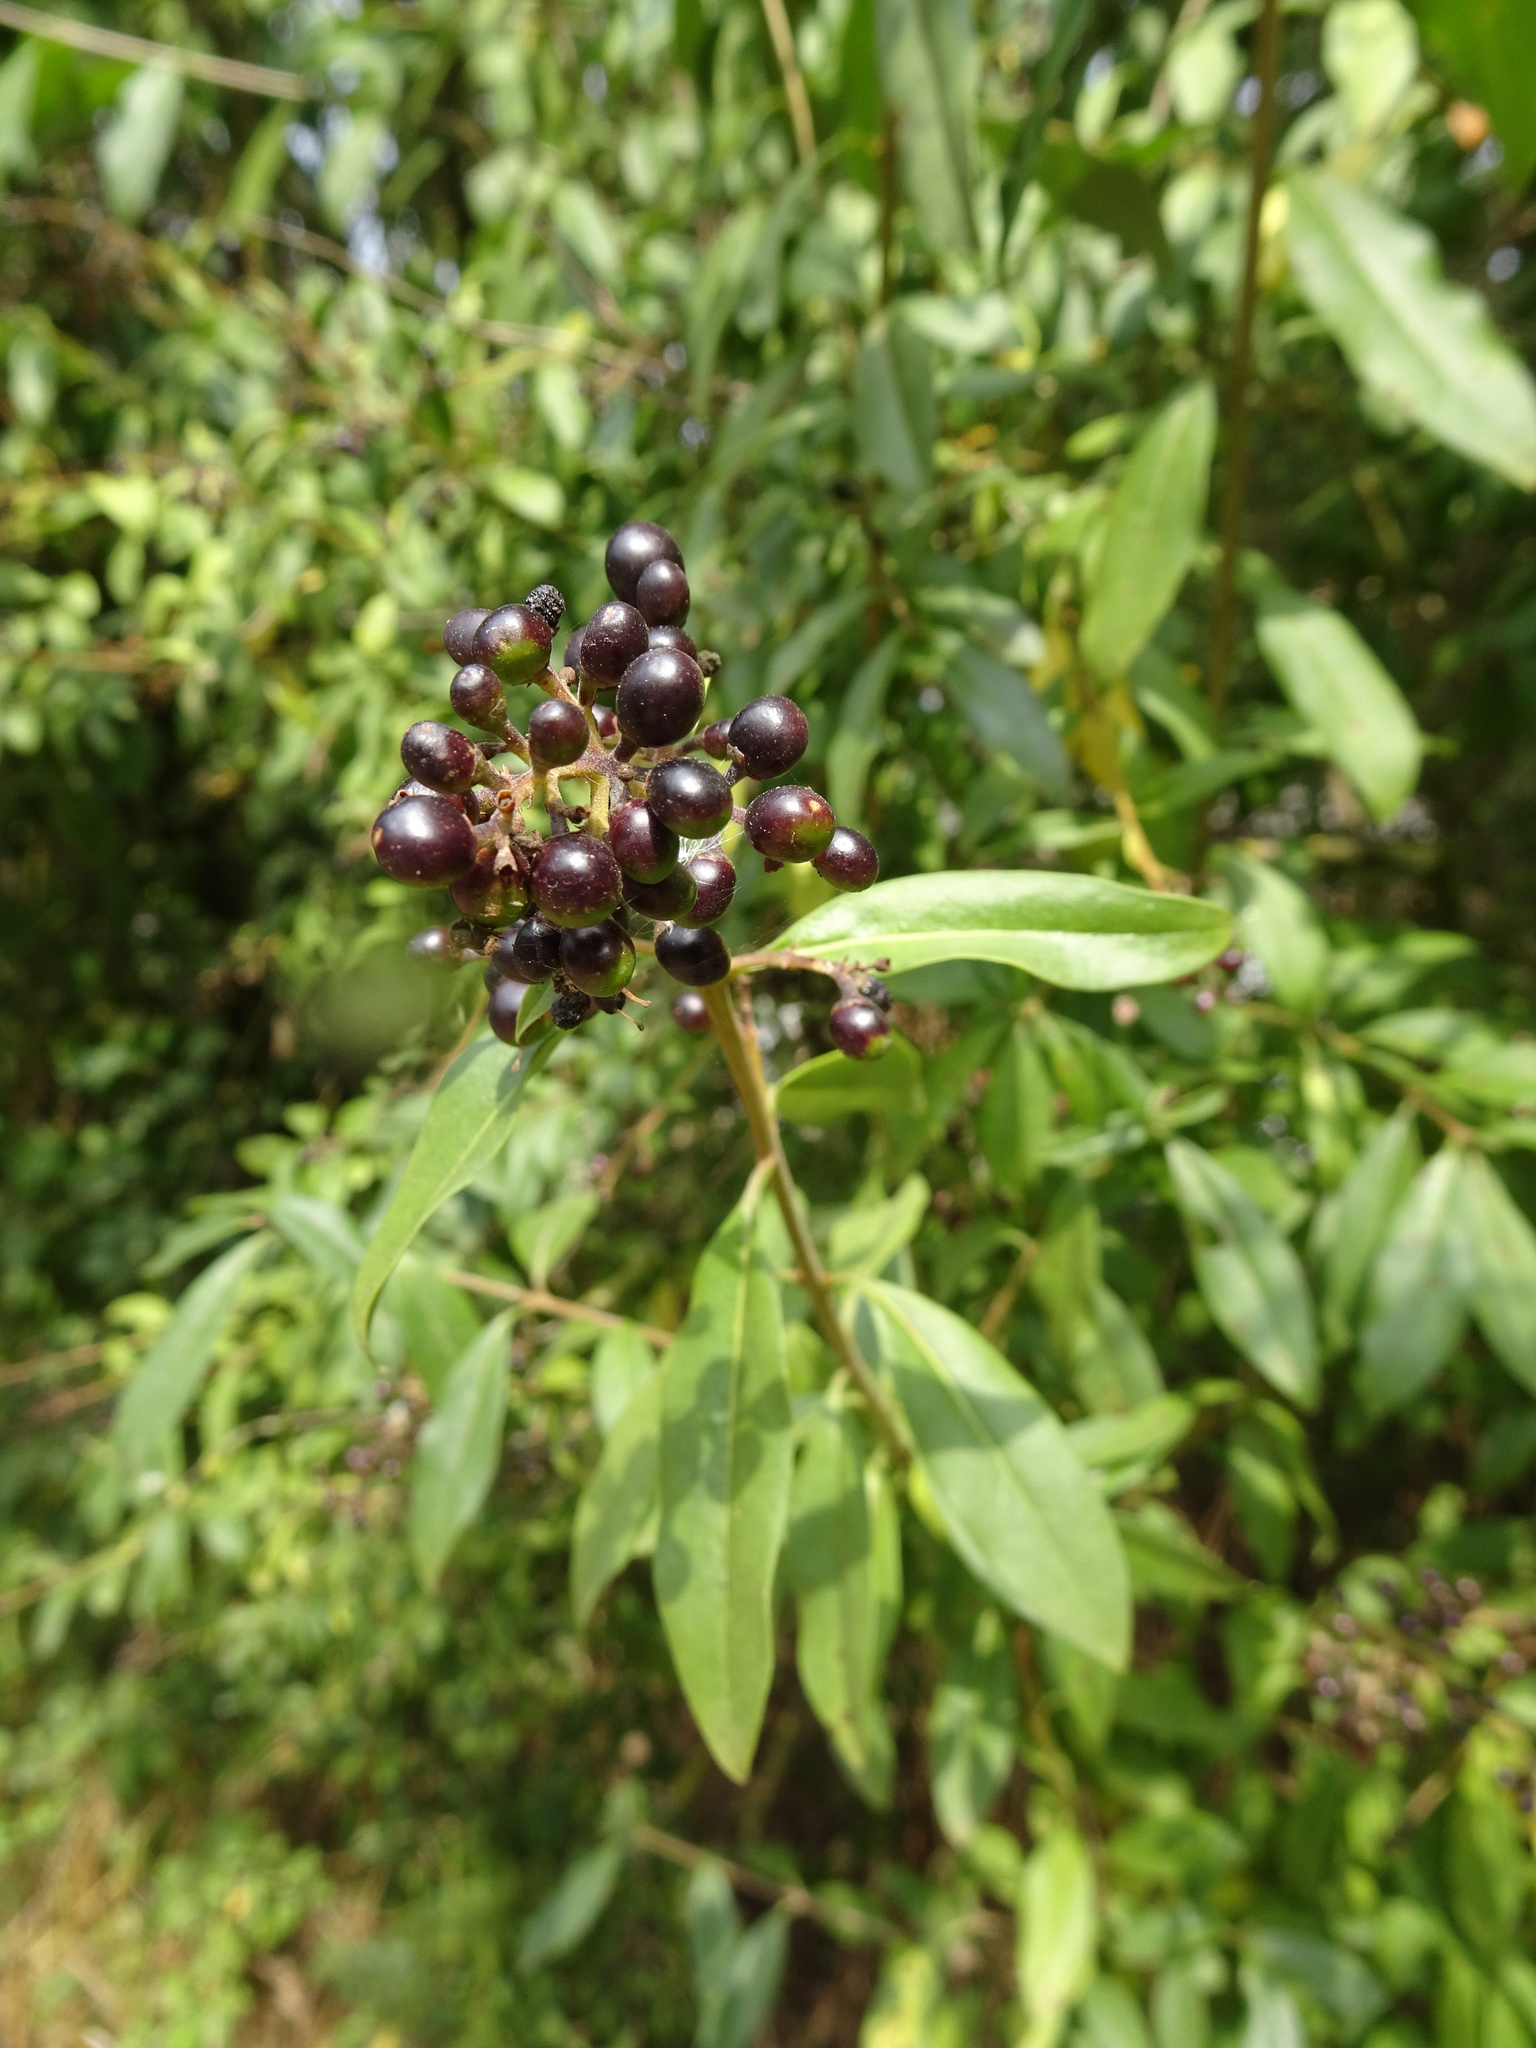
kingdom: Plantae
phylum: Tracheophyta
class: Magnoliopsida
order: Lamiales
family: Oleaceae
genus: Ligustrum
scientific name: Ligustrum vulgare
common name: Wild privet
